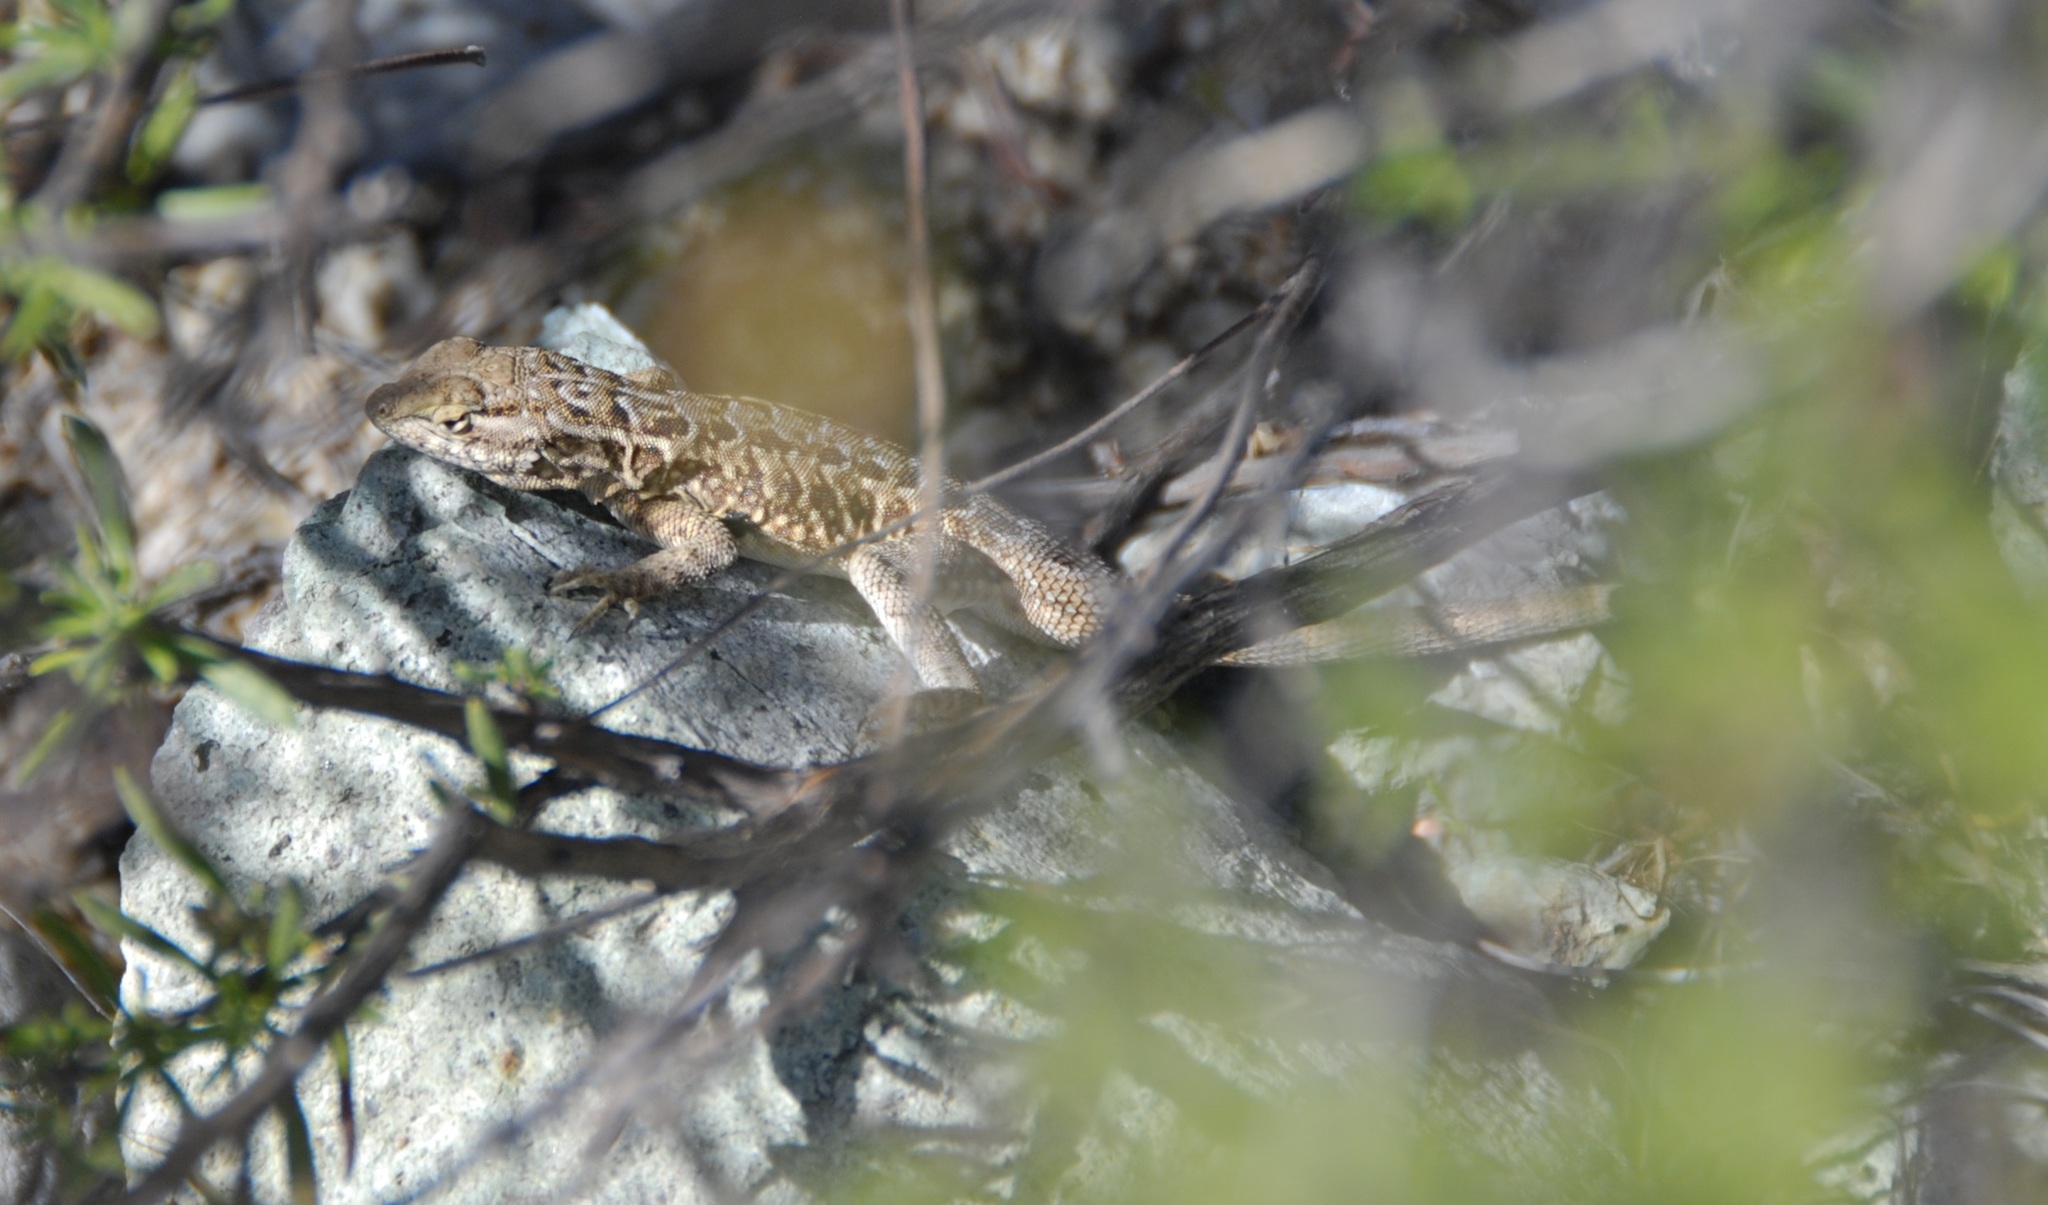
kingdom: Animalia
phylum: Chordata
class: Squamata
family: Phrynosomatidae
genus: Uta
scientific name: Uta stansburiana
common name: Side-blotched lizard
